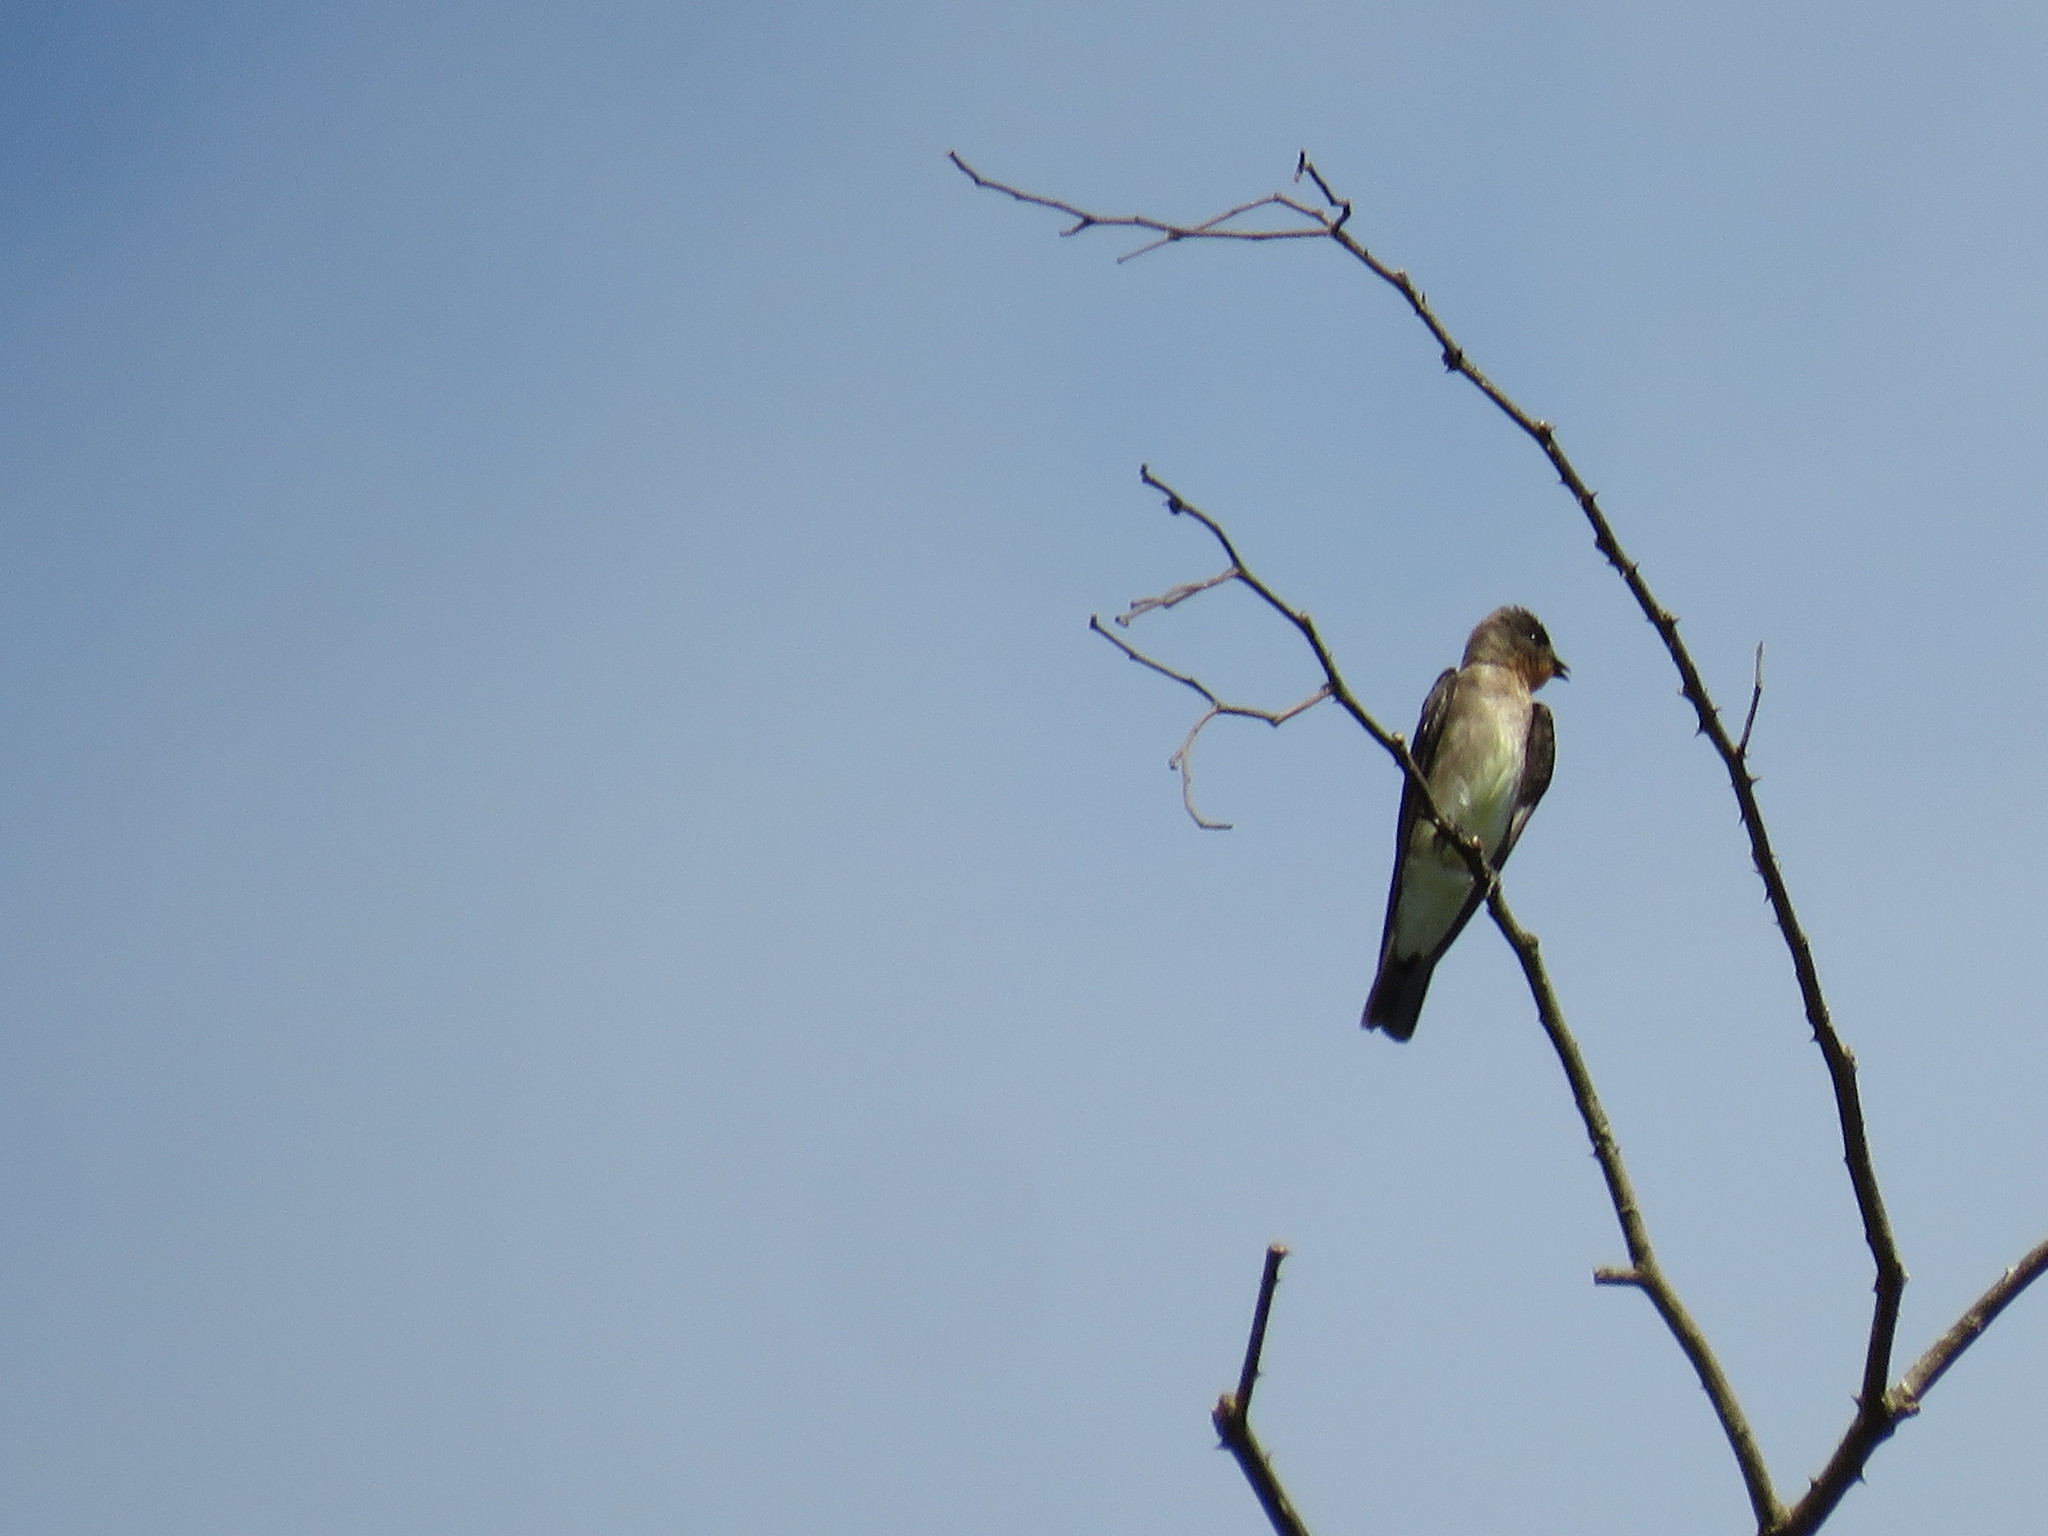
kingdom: Animalia
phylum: Chordata
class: Aves
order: Passeriformes
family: Hirundinidae
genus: Stelgidopteryx
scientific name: Stelgidopteryx ruficollis
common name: Southern rough-winged swallow
